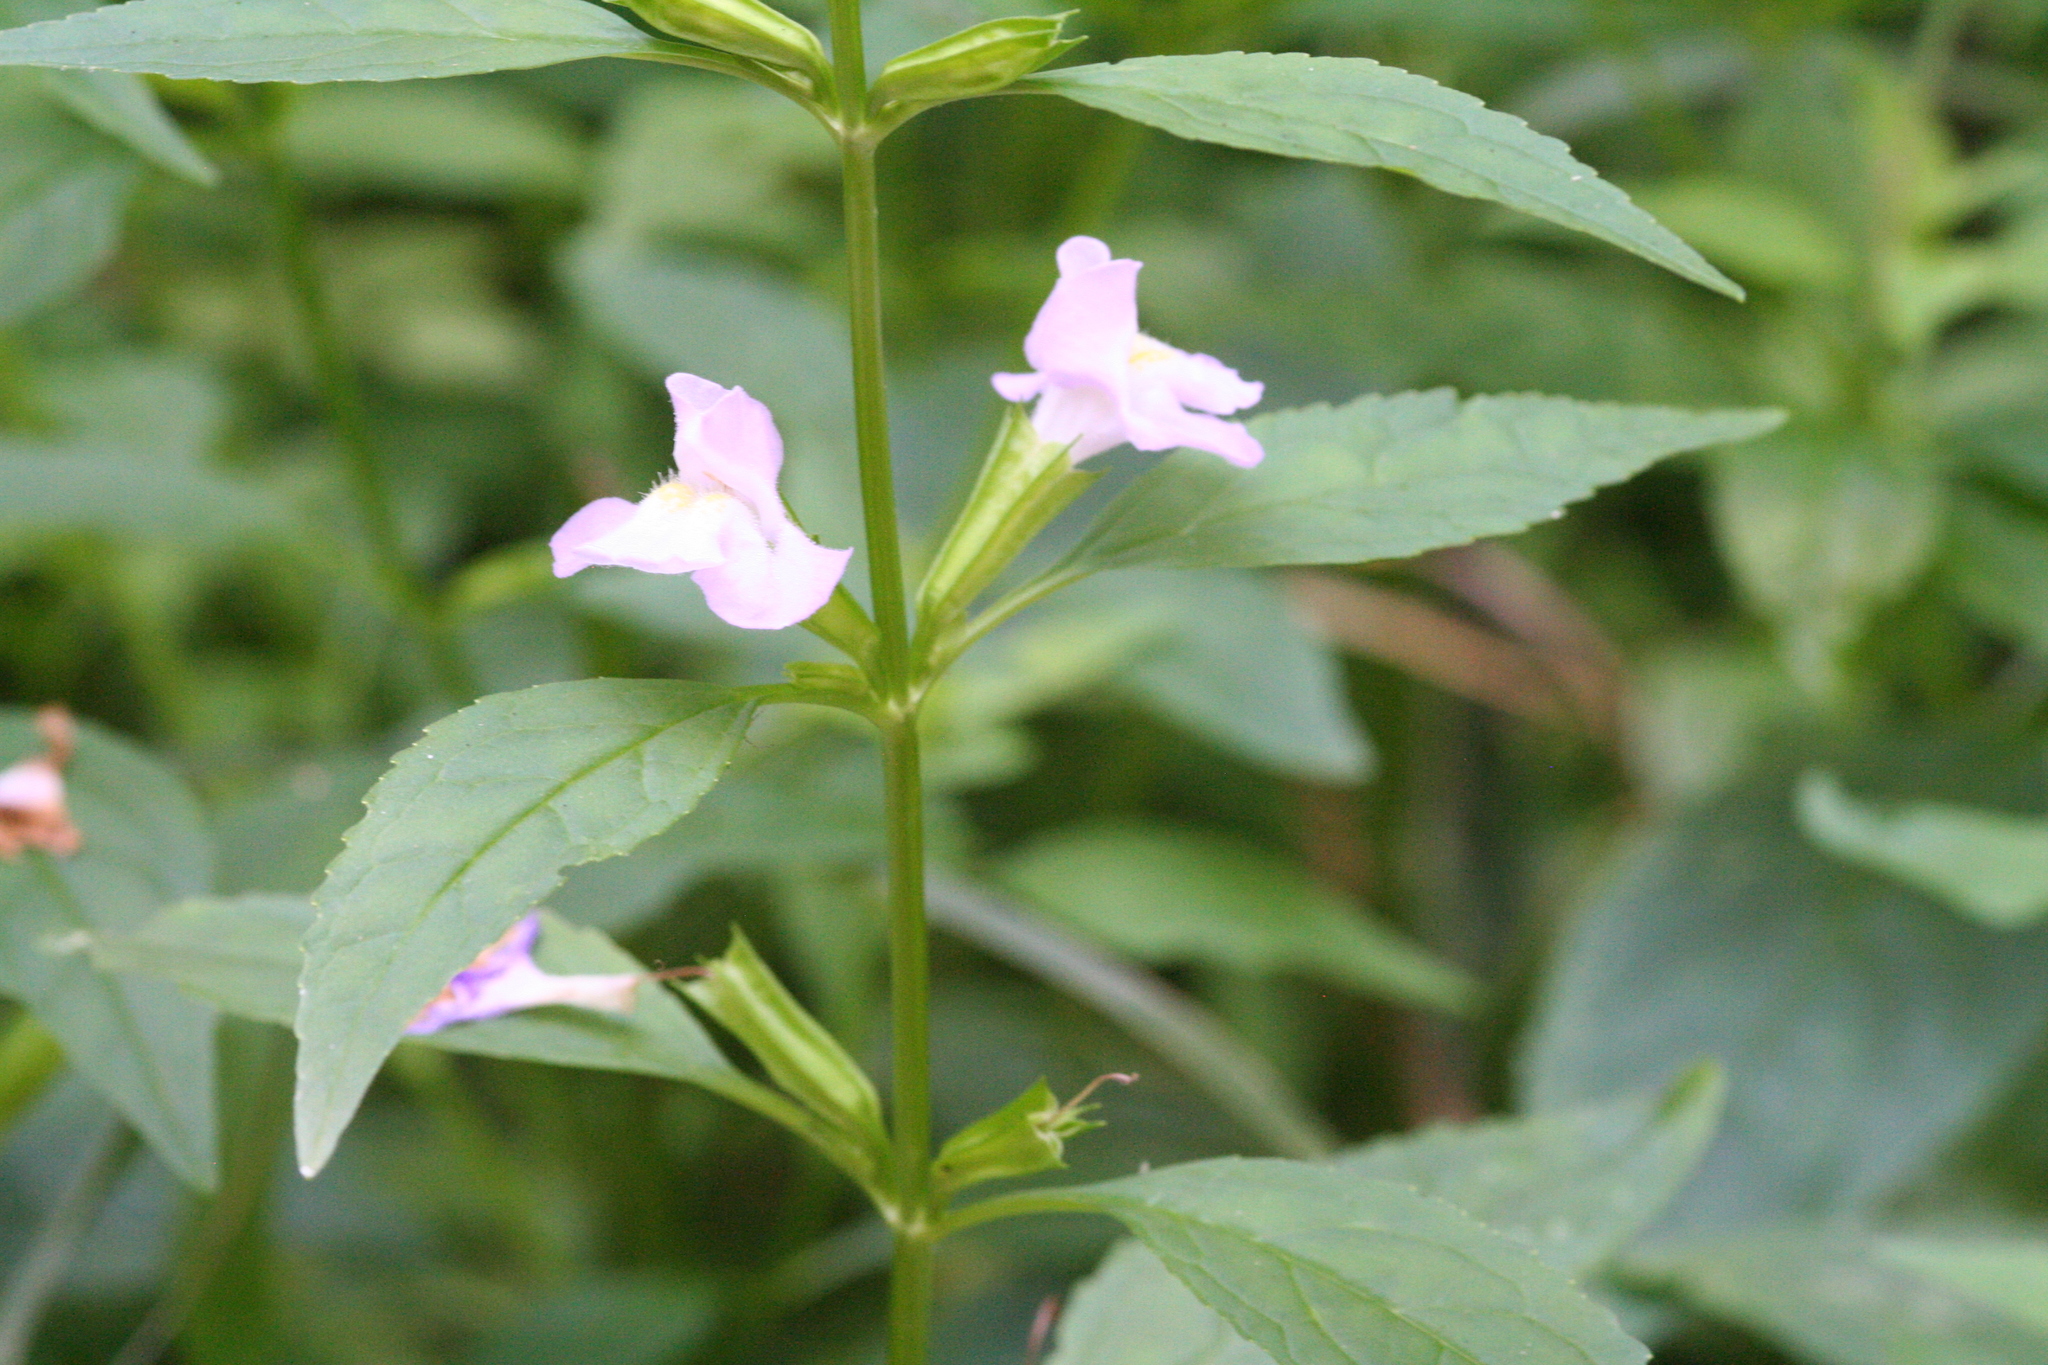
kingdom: Plantae
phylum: Tracheophyta
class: Magnoliopsida
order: Lamiales
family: Phrymaceae
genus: Mimulus
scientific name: Mimulus alatus
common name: Sharp-wing monkey-flower
